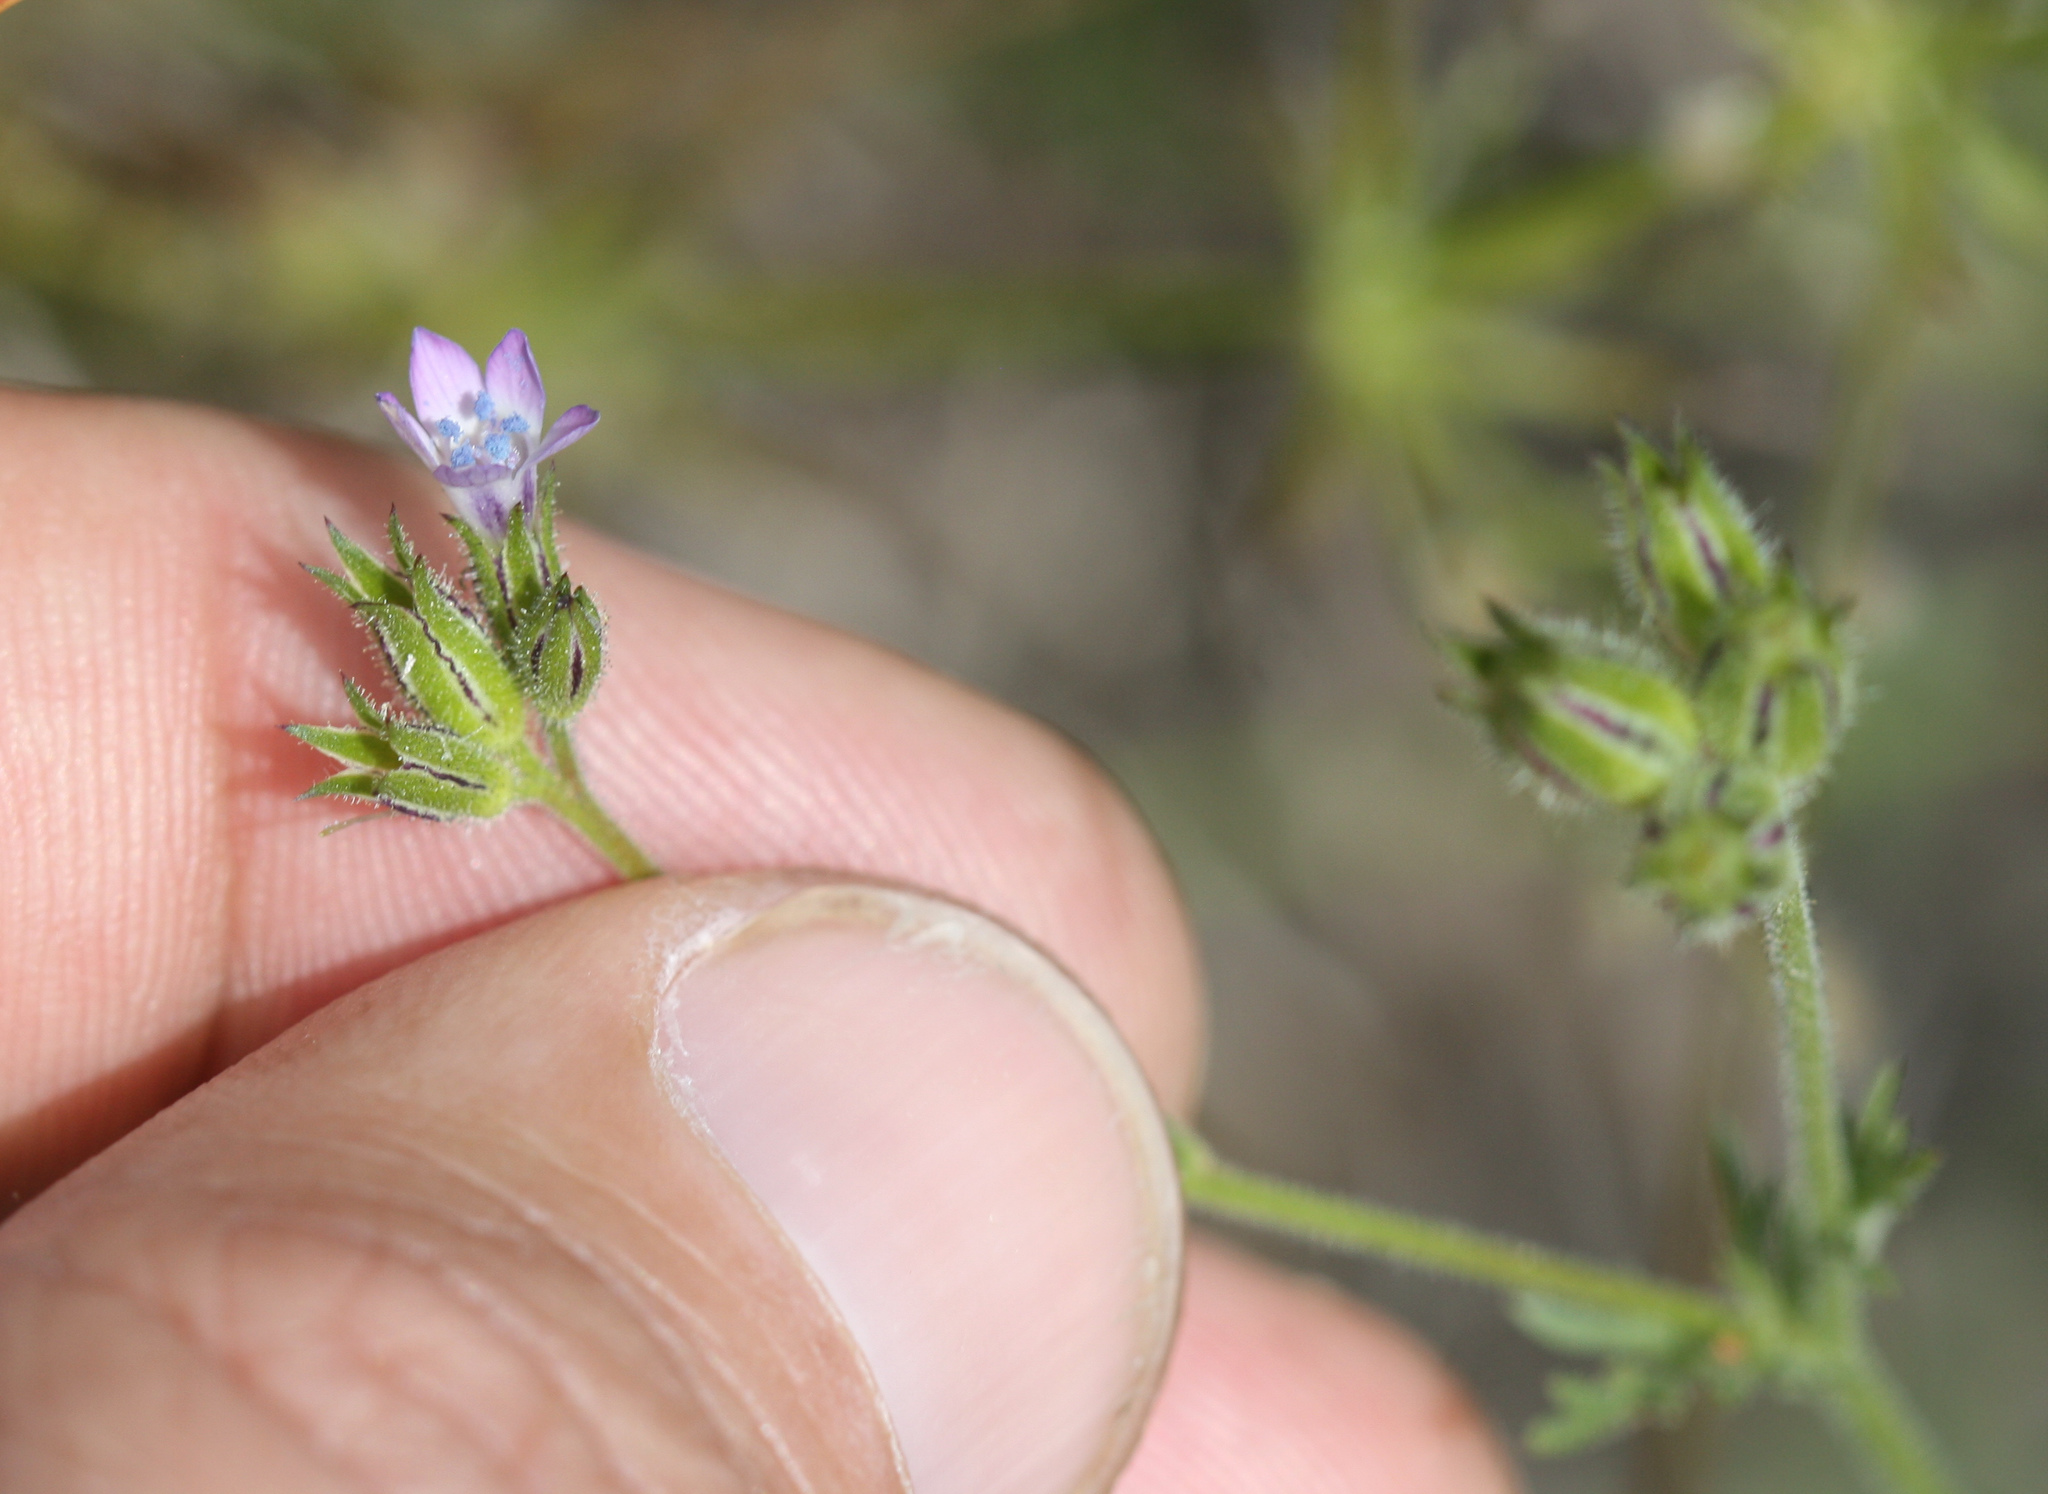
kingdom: Plantae
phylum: Tracheophyta
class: Magnoliopsida
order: Ericales
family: Polemoniaceae
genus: Gilia
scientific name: Gilia clivorum
